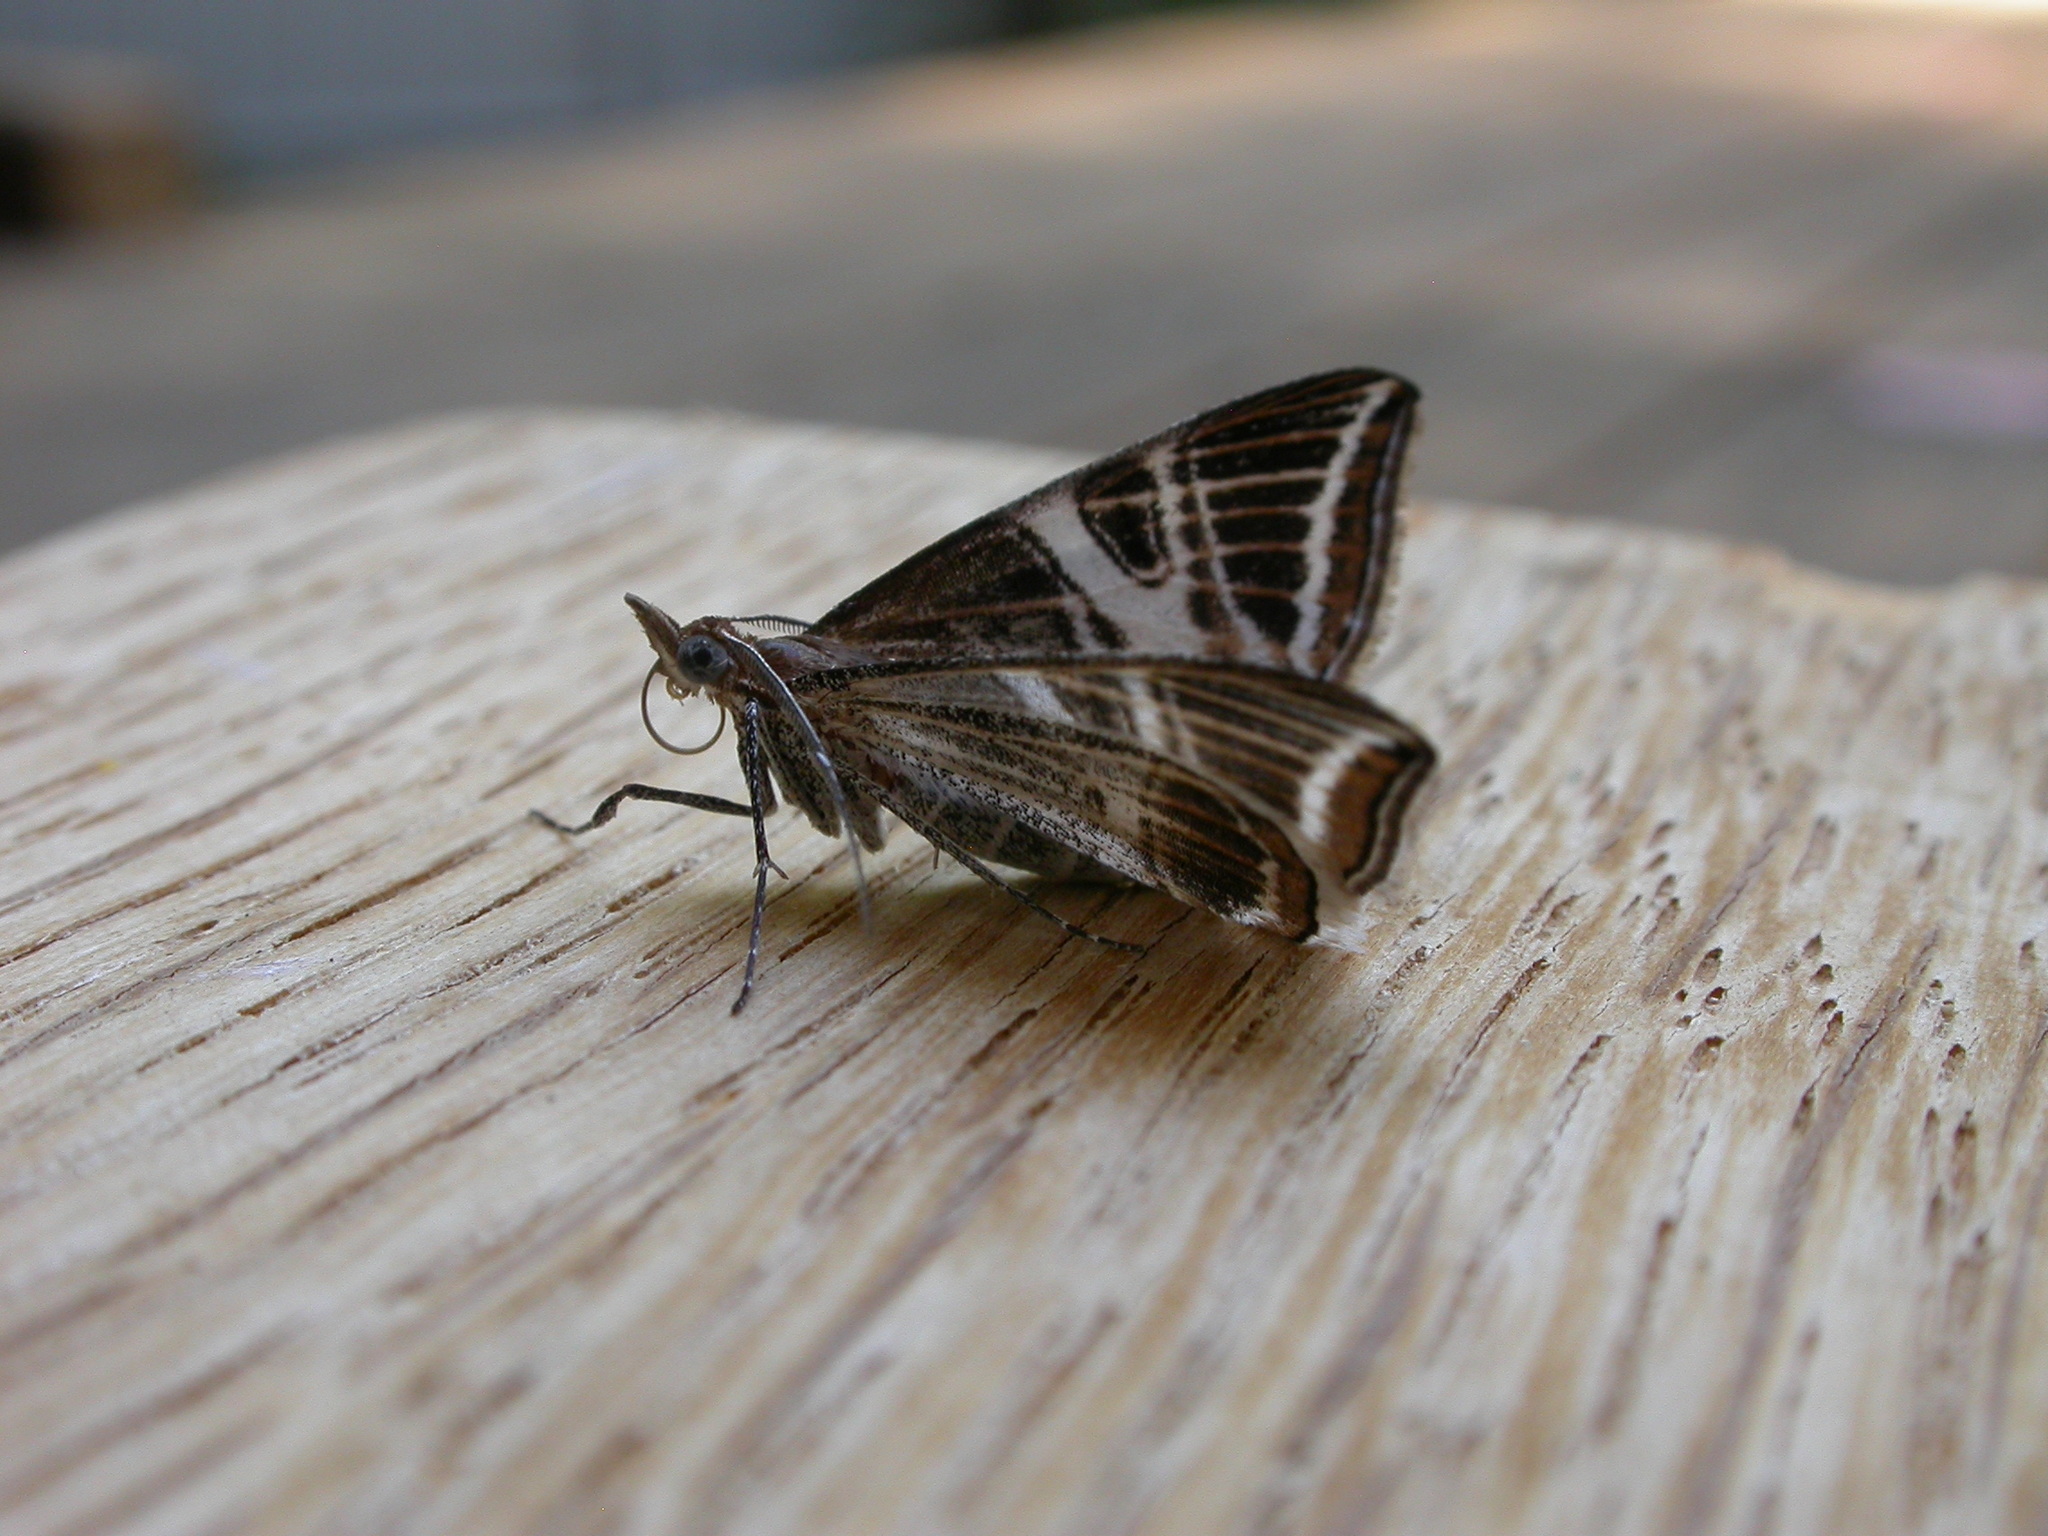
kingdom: Animalia
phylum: Arthropoda
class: Insecta
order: Lepidoptera
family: Geometridae
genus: Phrataria
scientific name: Phrataria transcissata
